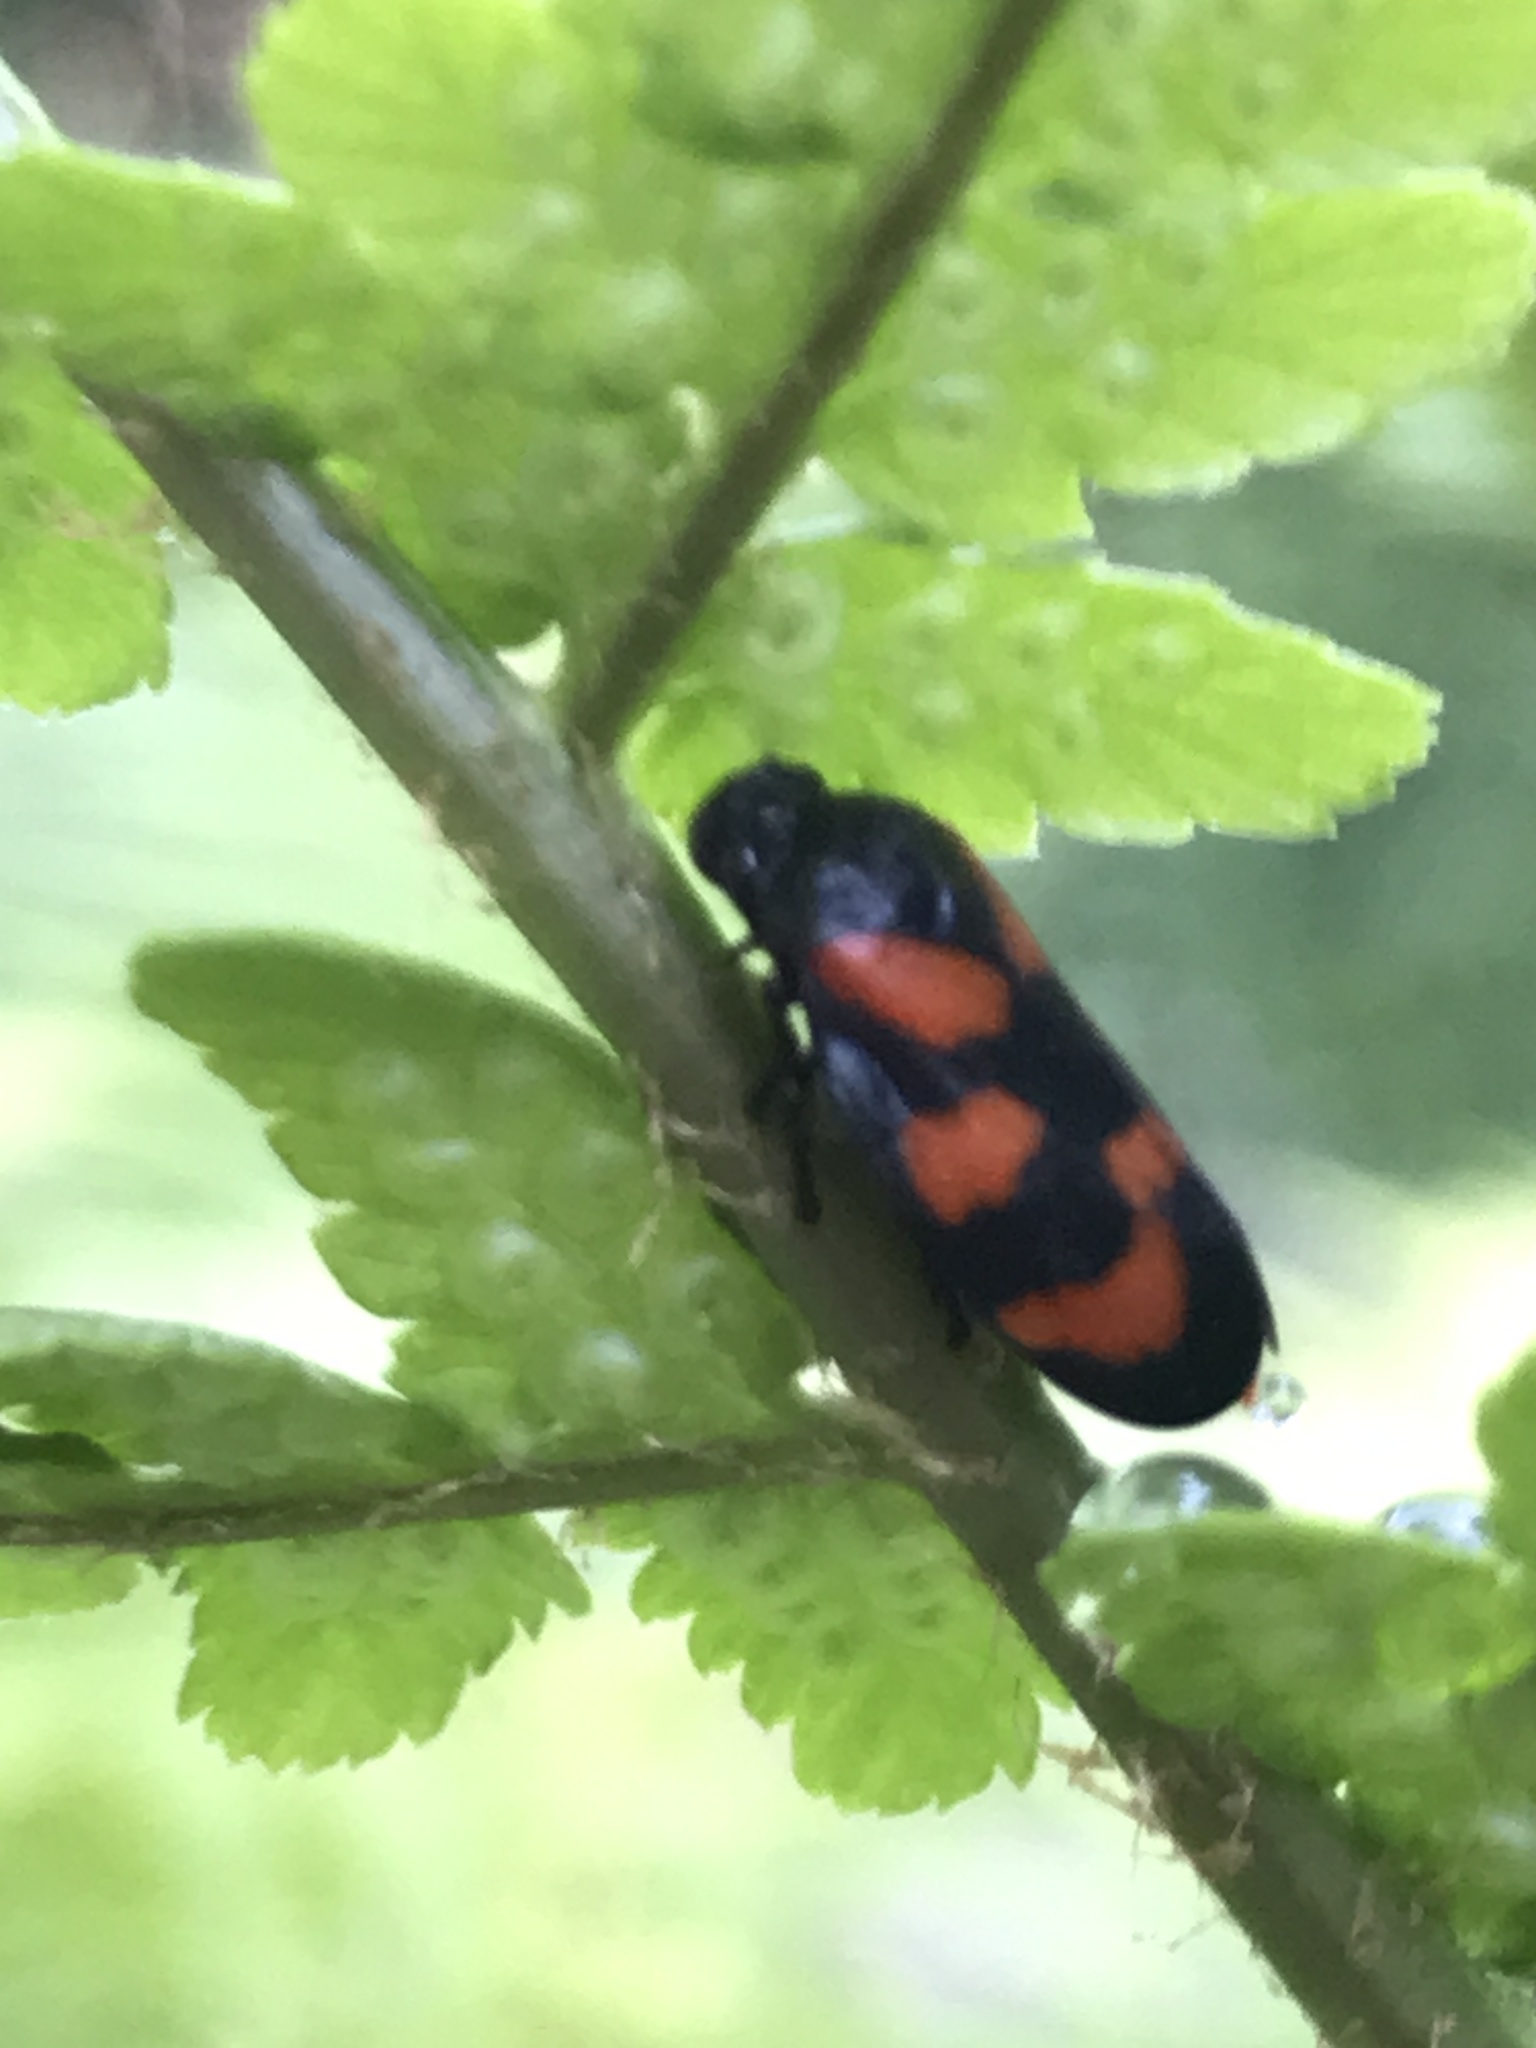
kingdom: Animalia
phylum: Arthropoda
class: Insecta
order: Hemiptera
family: Cercopidae
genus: Cercopis
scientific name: Cercopis vulnerata
